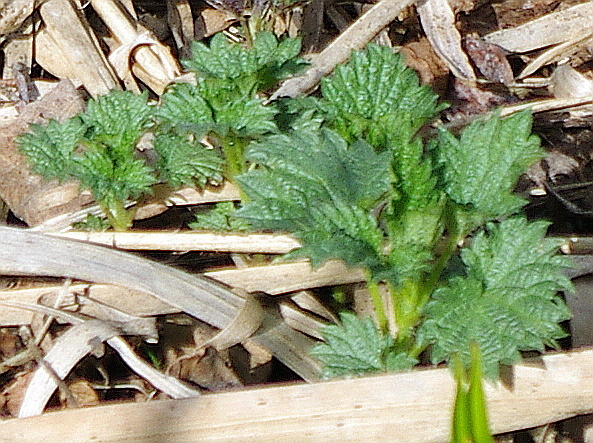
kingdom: Plantae
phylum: Tracheophyta
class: Magnoliopsida
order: Rosales
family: Urticaceae
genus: Urtica
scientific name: Urtica dioica
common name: Common nettle
